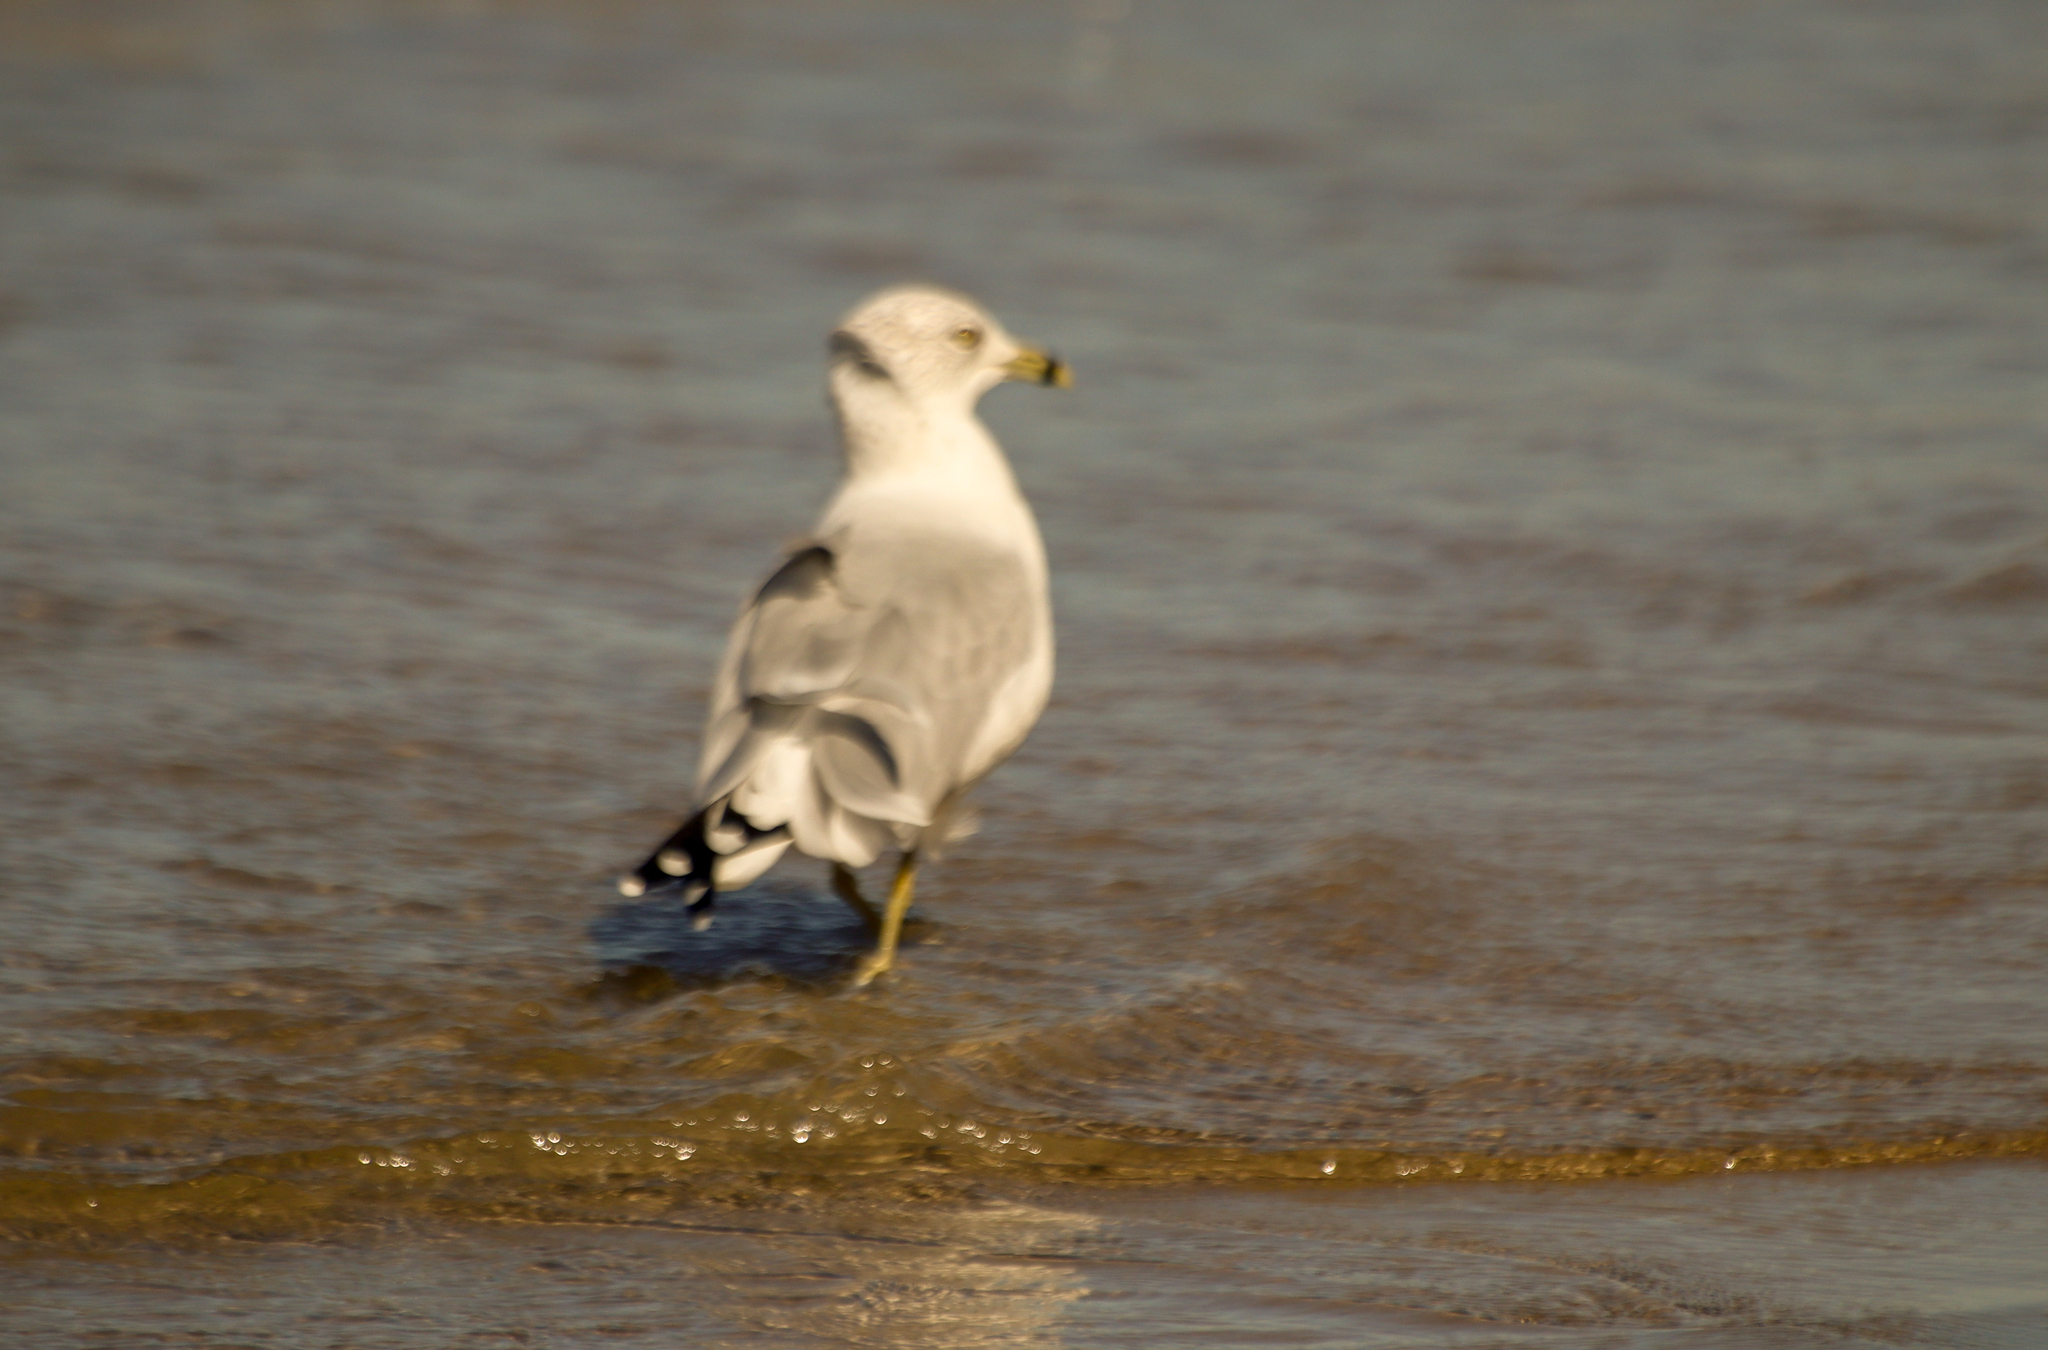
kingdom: Animalia
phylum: Chordata
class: Aves
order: Charadriiformes
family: Laridae
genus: Larus
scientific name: Larus delawarensis
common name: Ring-billed gull
